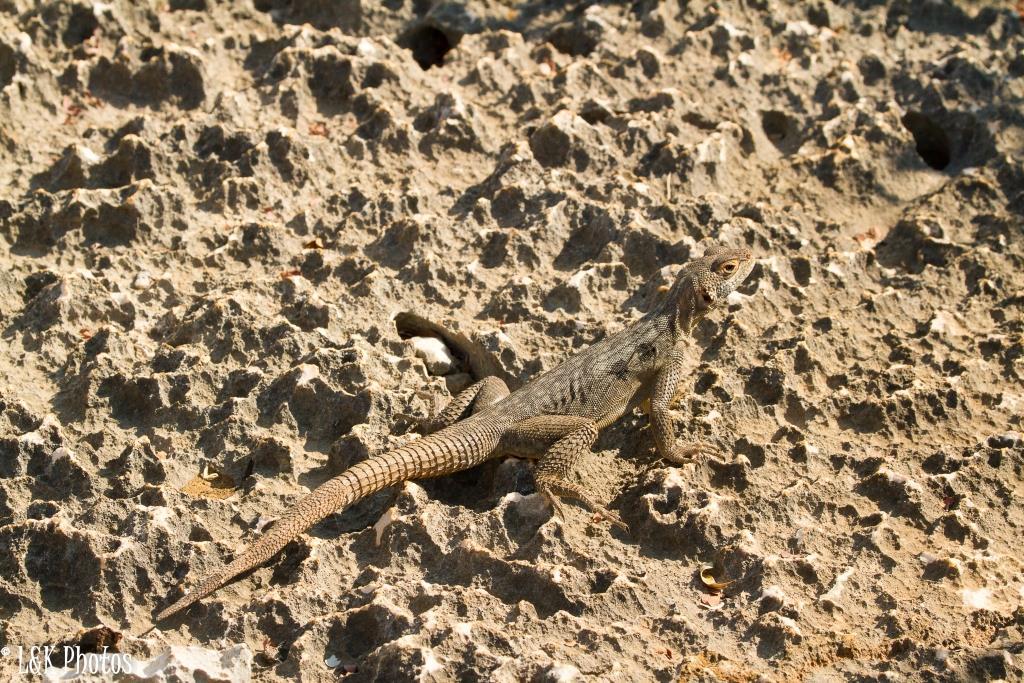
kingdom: Animalia
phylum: Chordata
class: Squamata
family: Opluridae
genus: Oplurus
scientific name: Oplurus quadrimaculatus
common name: Duméril's madagascar swift
